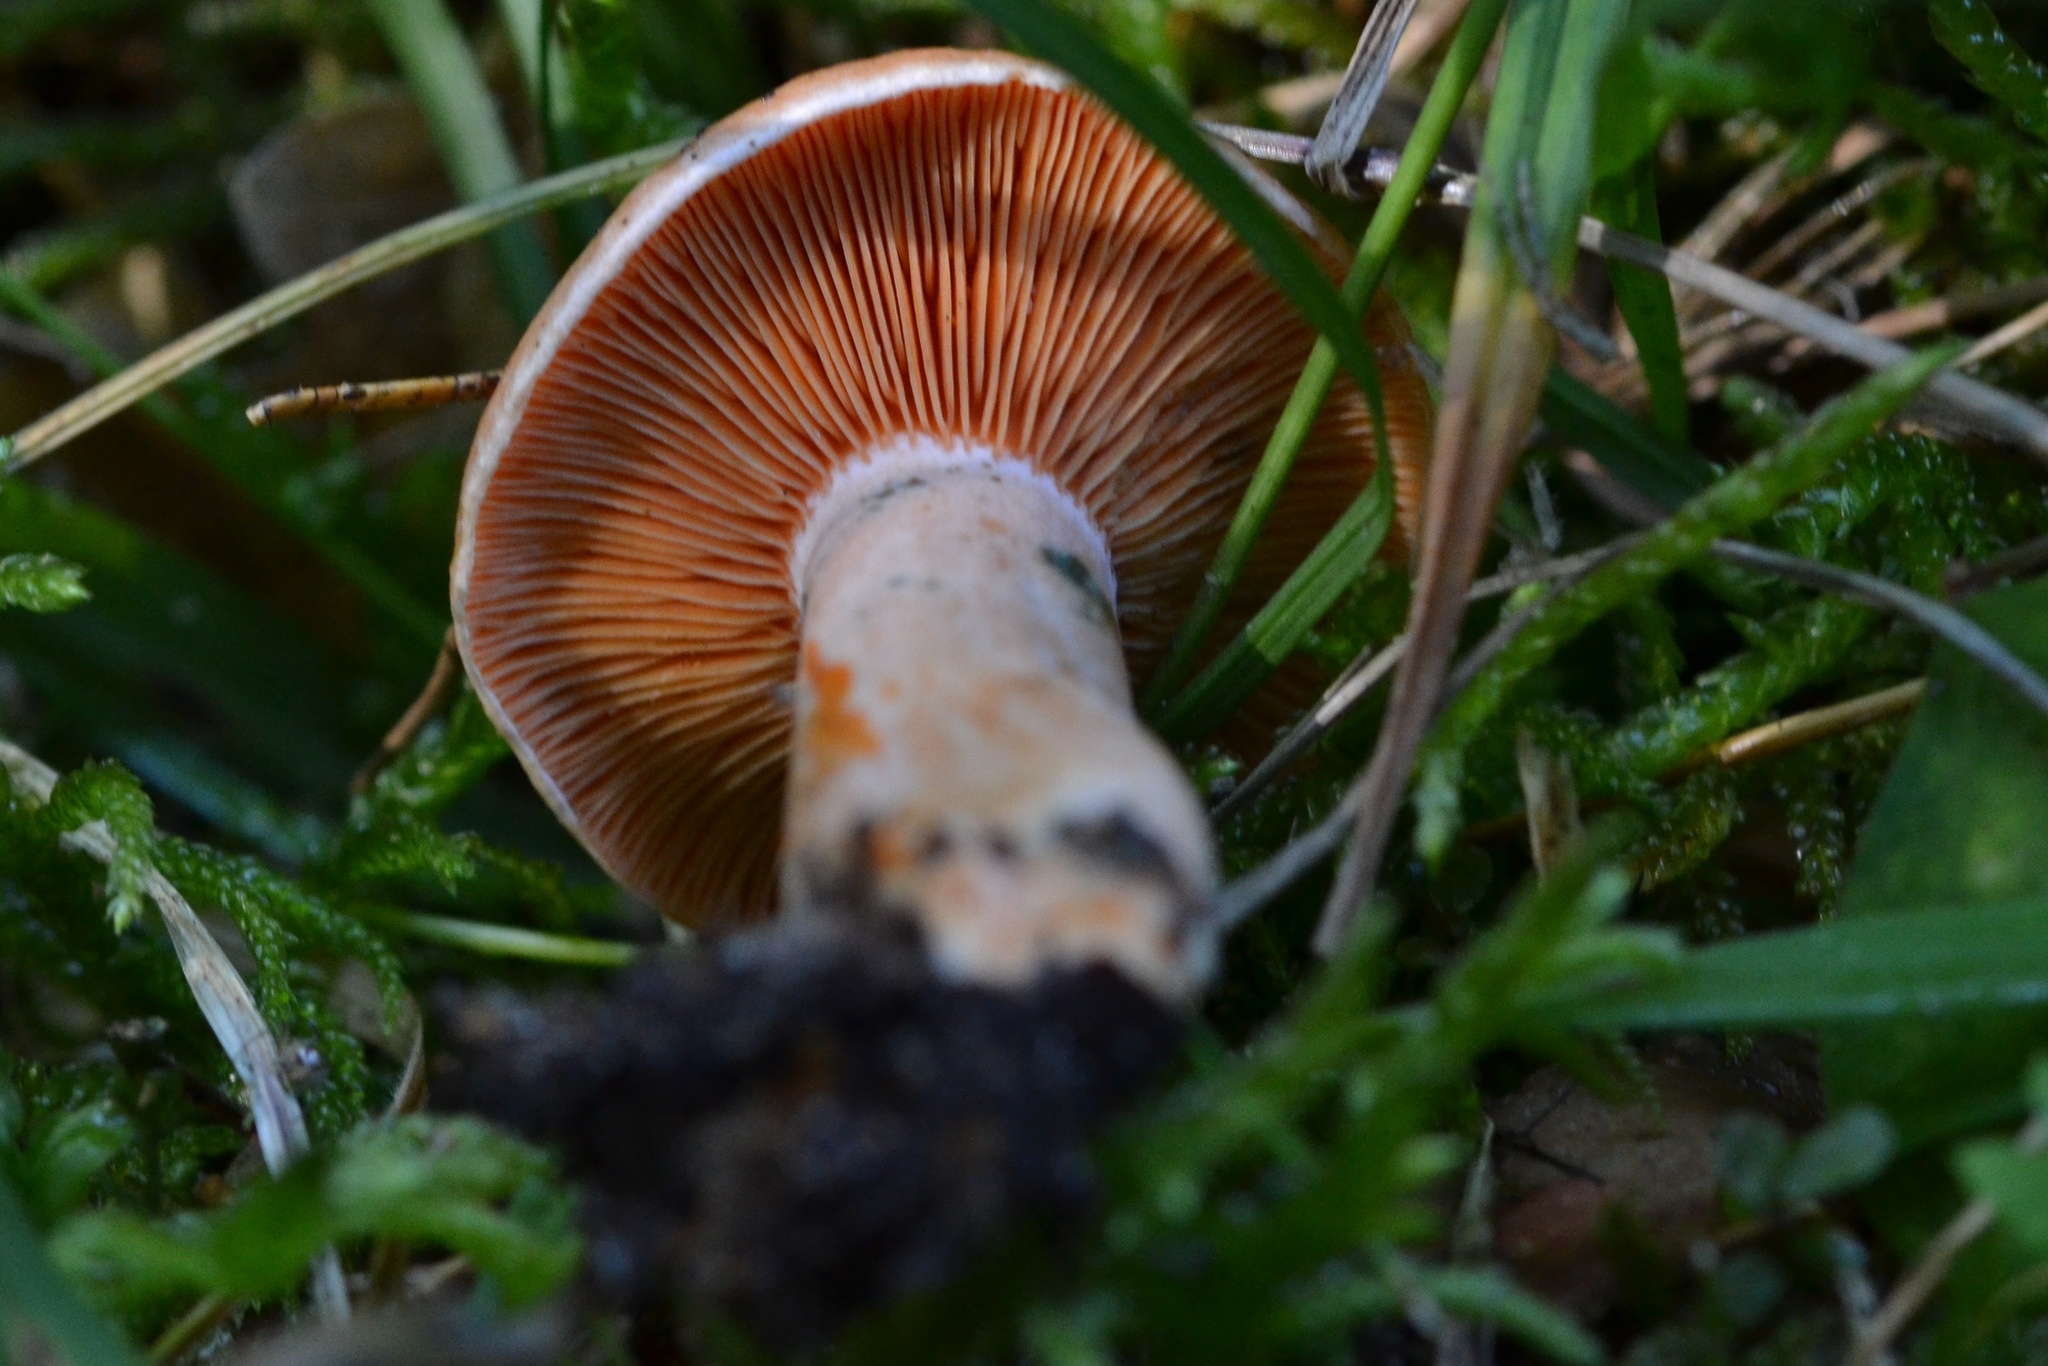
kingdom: Fungi
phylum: Basidiomycota
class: Agaricomycetes
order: Russulales
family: Russulaceae
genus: Lactarius
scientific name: Lactarius deterrimus
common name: False saffron milkcap
